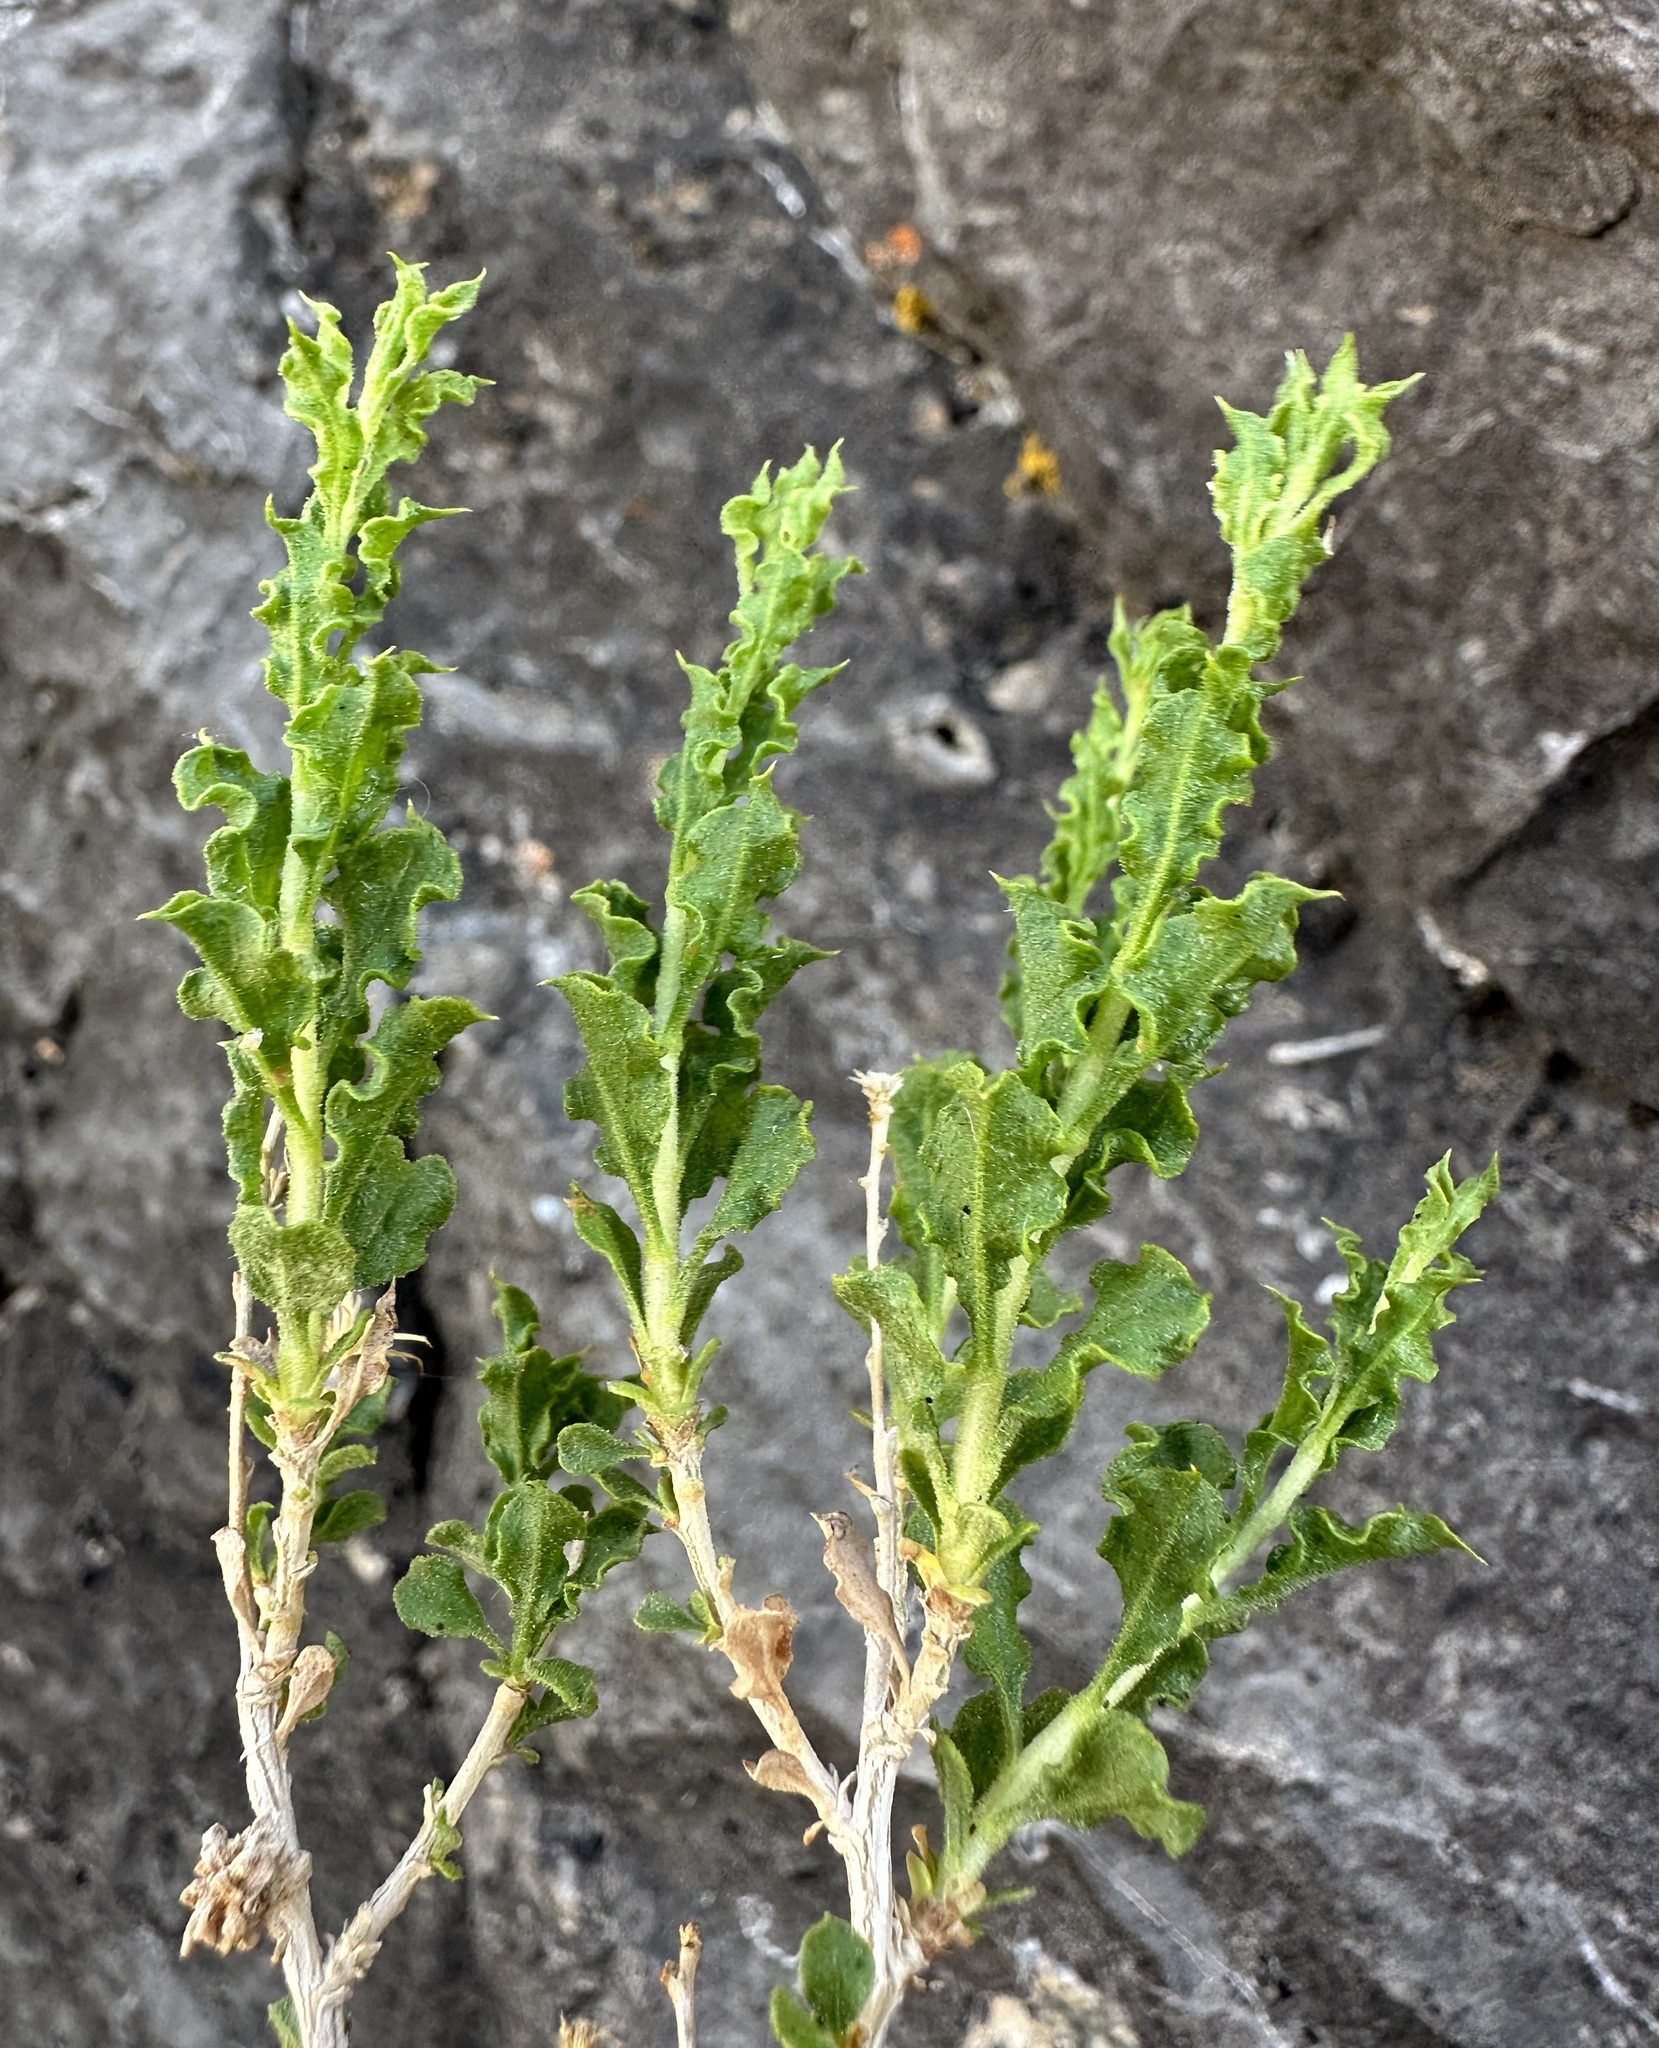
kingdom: Plantae
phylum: Tracheophyta
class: Magnoliopsida
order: Asterales
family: Asteraceae
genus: Ericameria
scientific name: Ericameria cervina
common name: Antelope goldenbush
